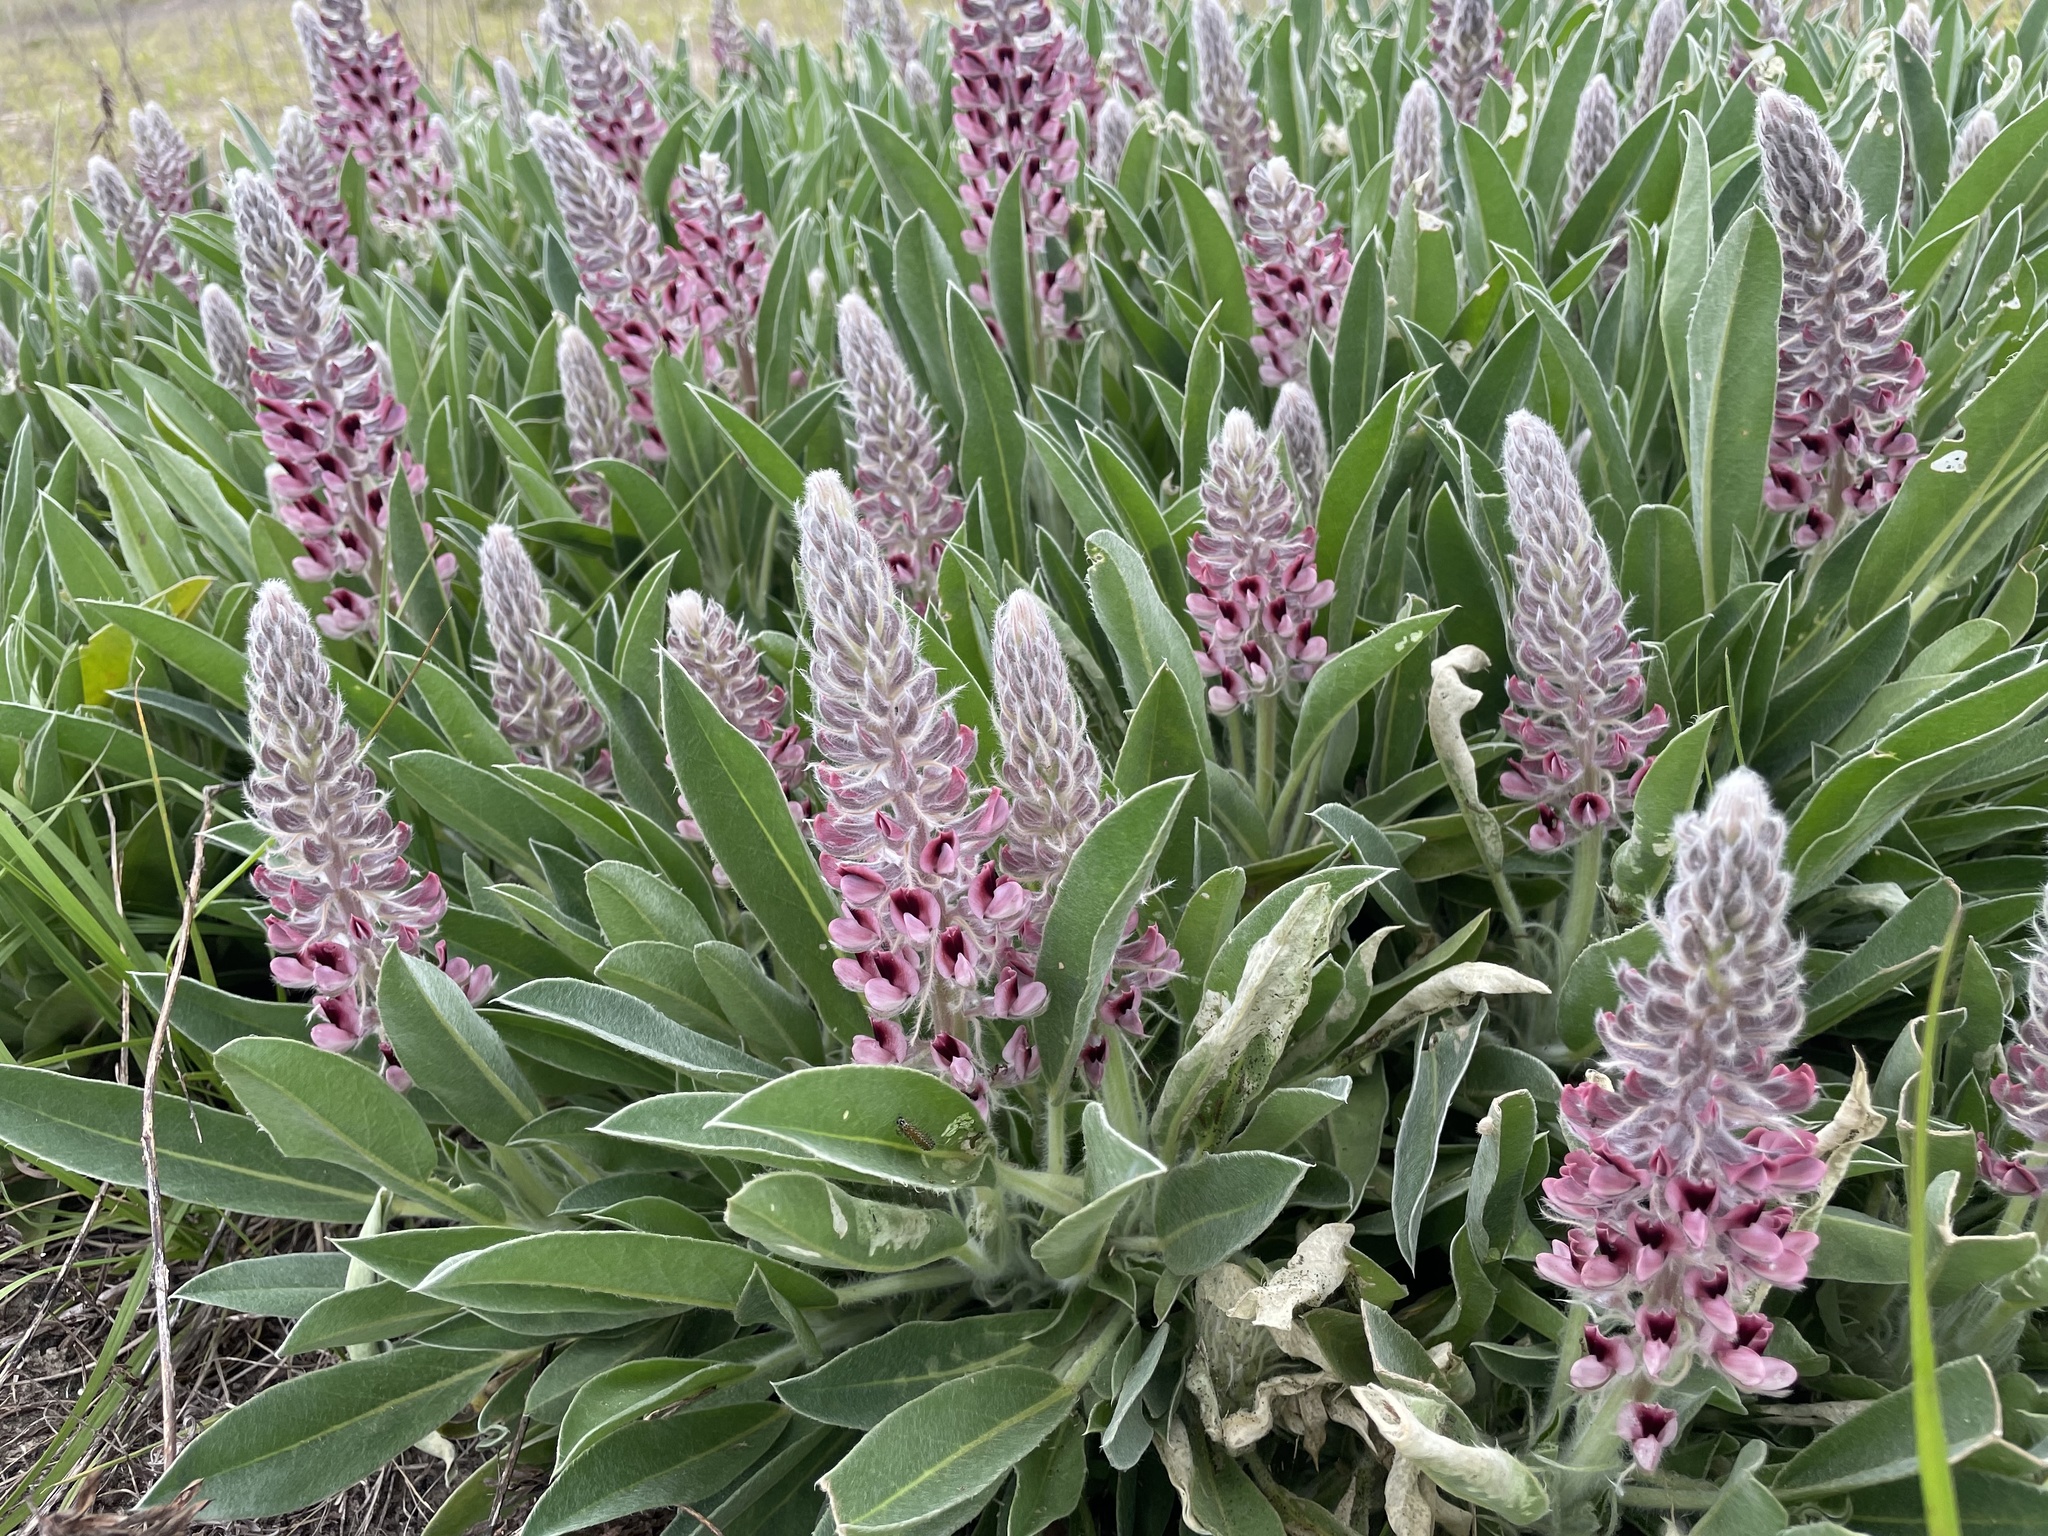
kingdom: Plantae
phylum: Tracheophyta
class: Magnoliopsida
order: Fabales
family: Fabaceae
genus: Lupinus
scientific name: Lupinus villosus
